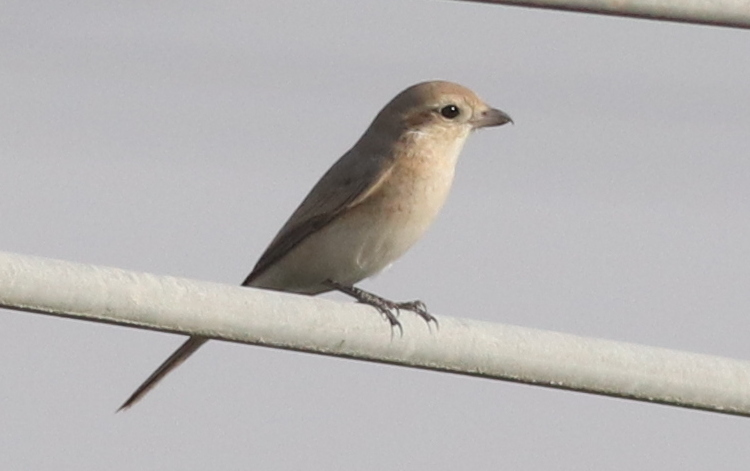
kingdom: Animalia
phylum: Chordata
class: Aves
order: Passeriformes
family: Laniidae
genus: Lanius
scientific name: Lanius isabellinus
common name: Isabelline shrike
